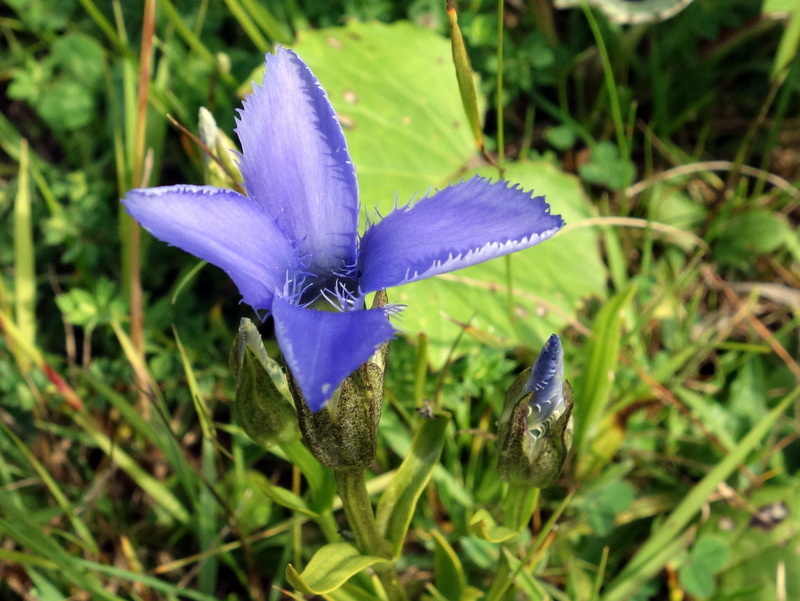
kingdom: Plantae
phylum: Tracheophyta
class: Magnoliopsida
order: Gentianales
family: Gentianaceae
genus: Gentianopsis
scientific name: Gentianopsis ciliata
